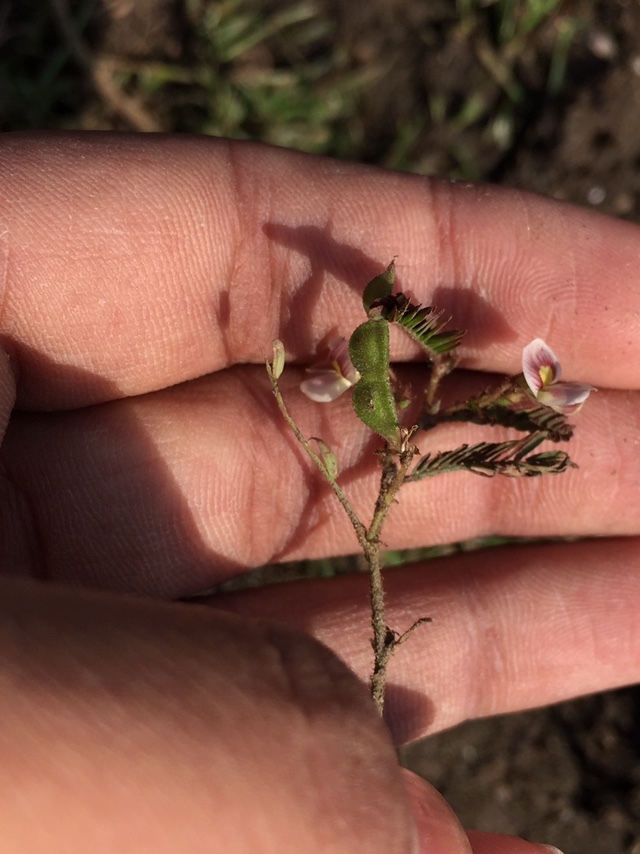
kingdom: Plantae
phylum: Tracheophyta
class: Magnoliopsida
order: Fabales
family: Fabaceae
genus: Aeschynomene
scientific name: Aeschynomene americana
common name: Joint-vetch
